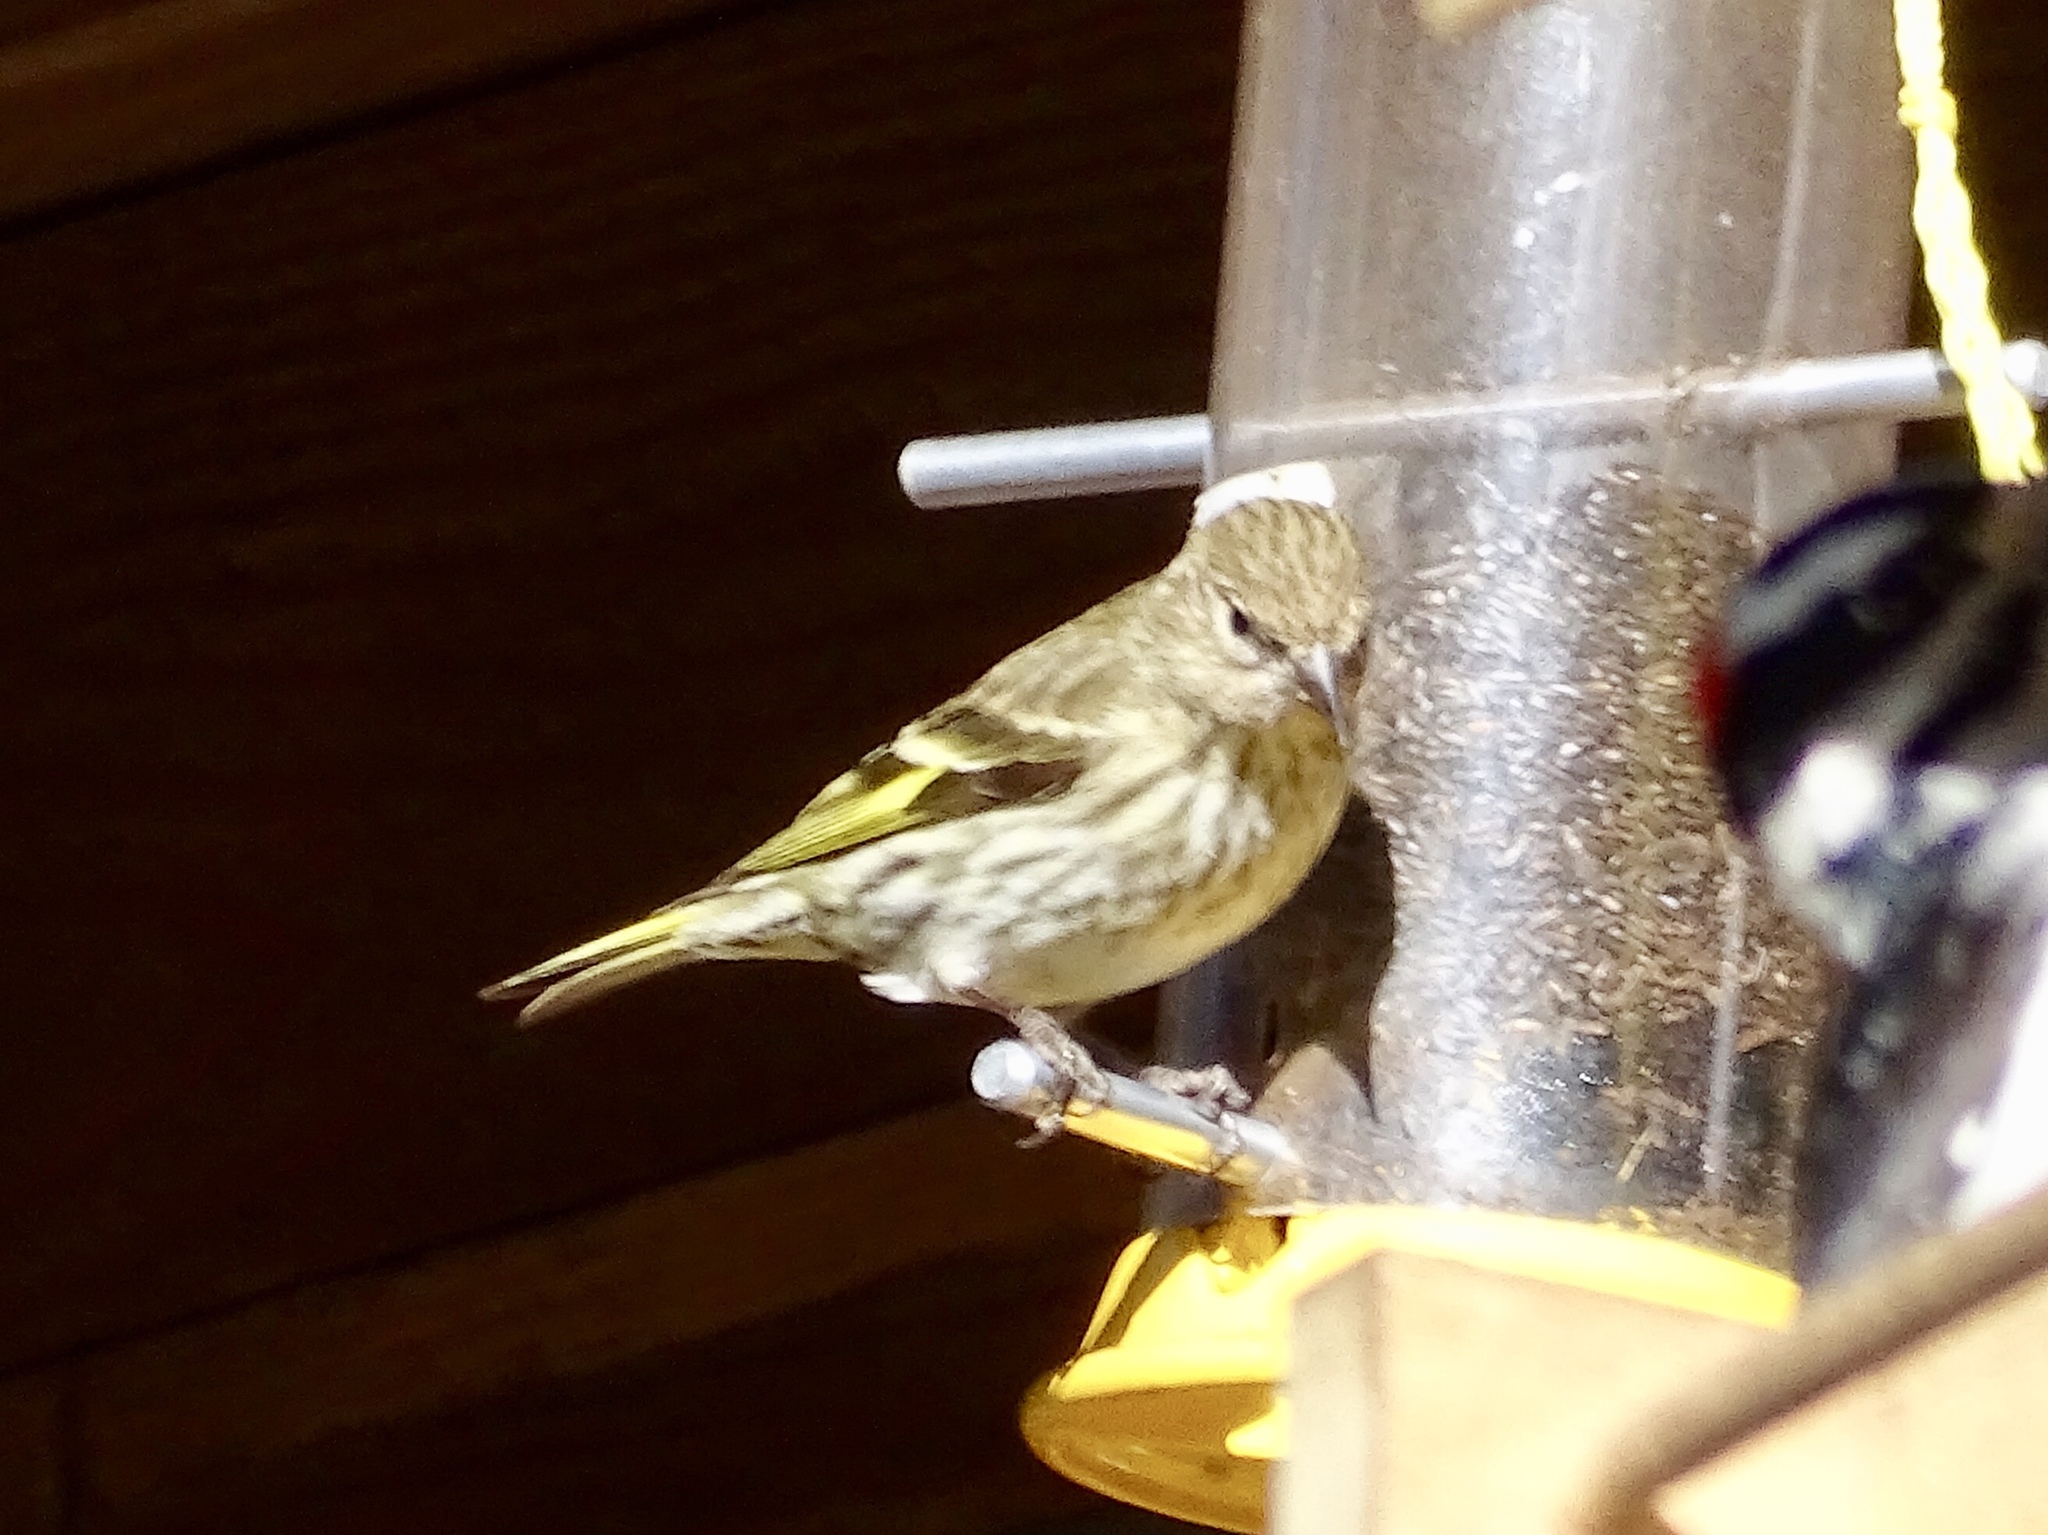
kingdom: Animalia
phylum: Chordata
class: Aves
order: Passeriformes
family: Fringillidae
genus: Spinus
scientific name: Spinus pinus
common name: Pine siskin
